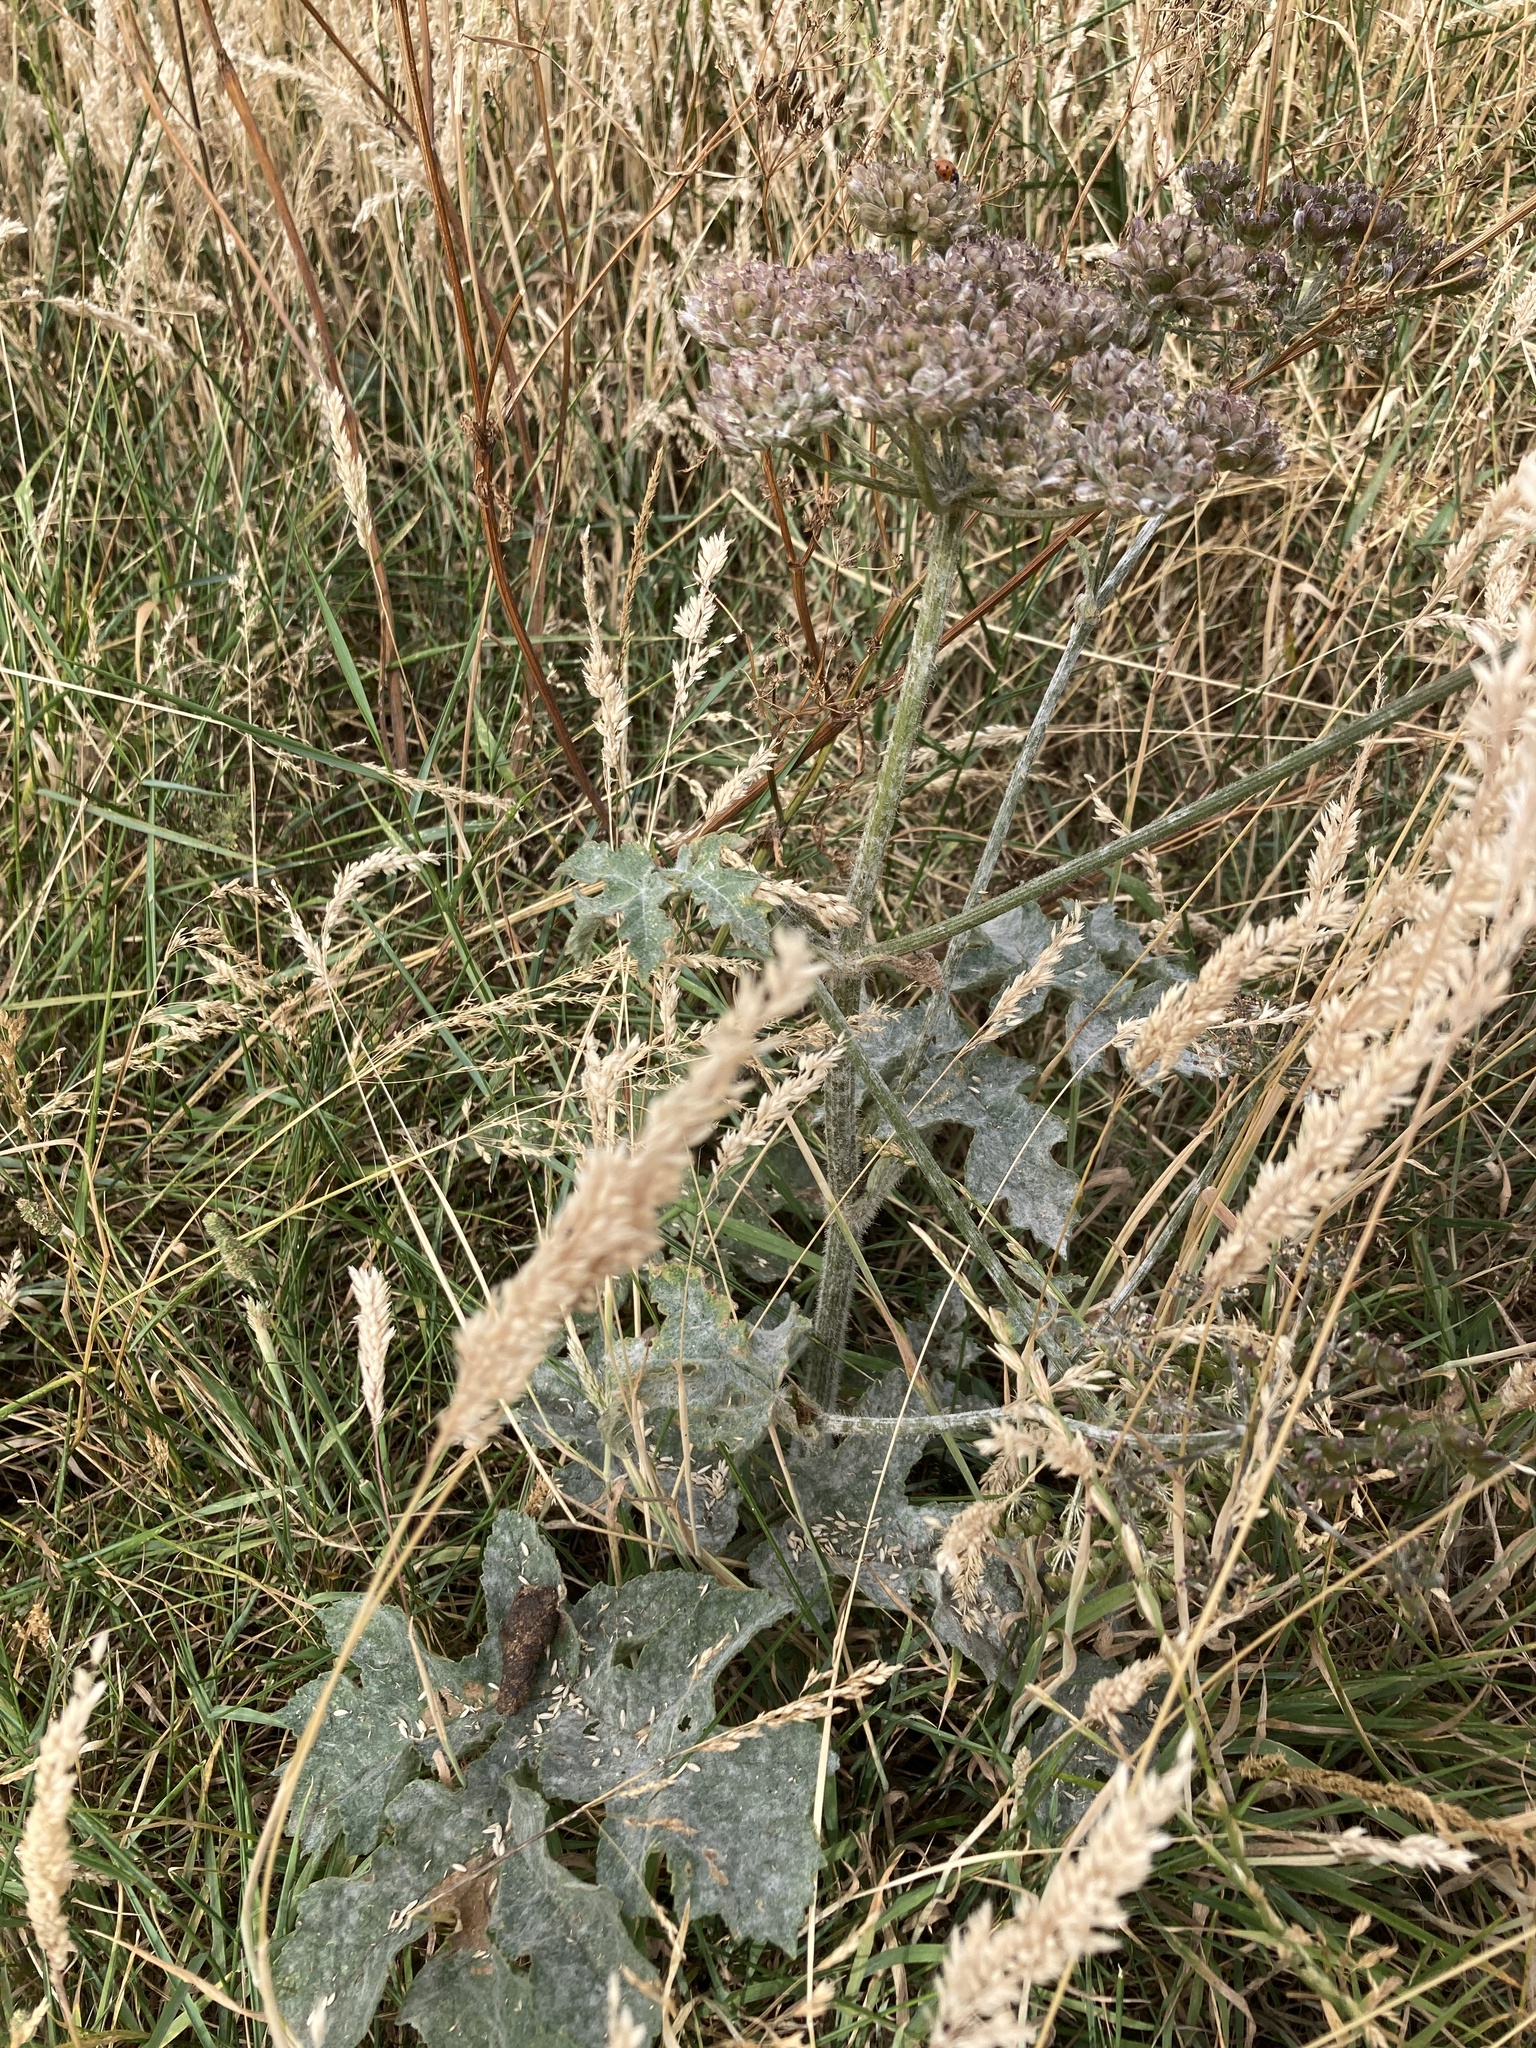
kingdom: Plantae
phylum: Tracheophyta
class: Magnoliopsida
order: Apiales
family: Apiaceae
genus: Heracleum
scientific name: Heracleum sphondylium
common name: Hogweed
